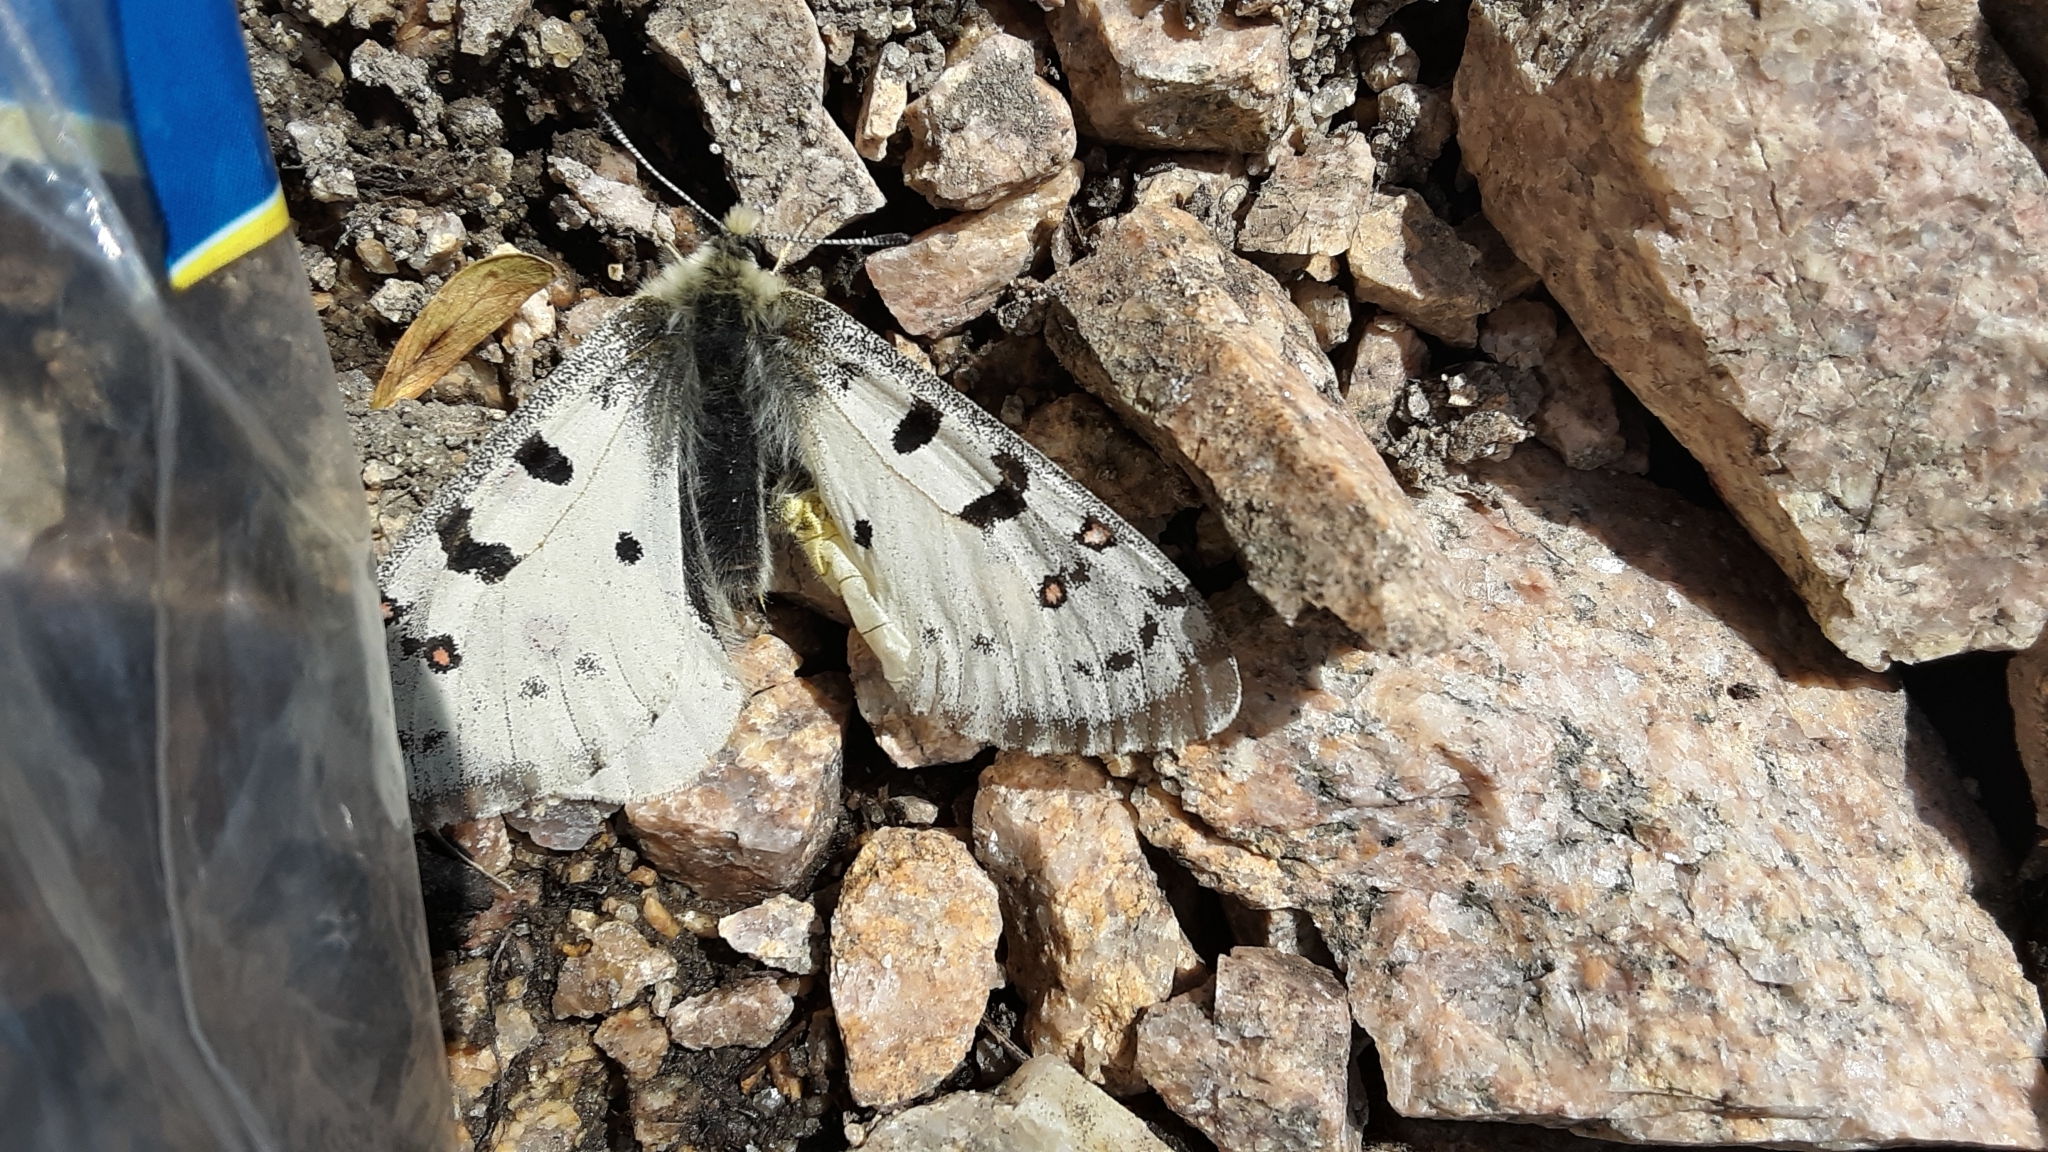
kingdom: Animalia
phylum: Arthropoda
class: Insecta
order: Lepidoptera
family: Papilionidae
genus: Parnassius
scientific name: Parnassius smintheus
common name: Mountain parnassian
